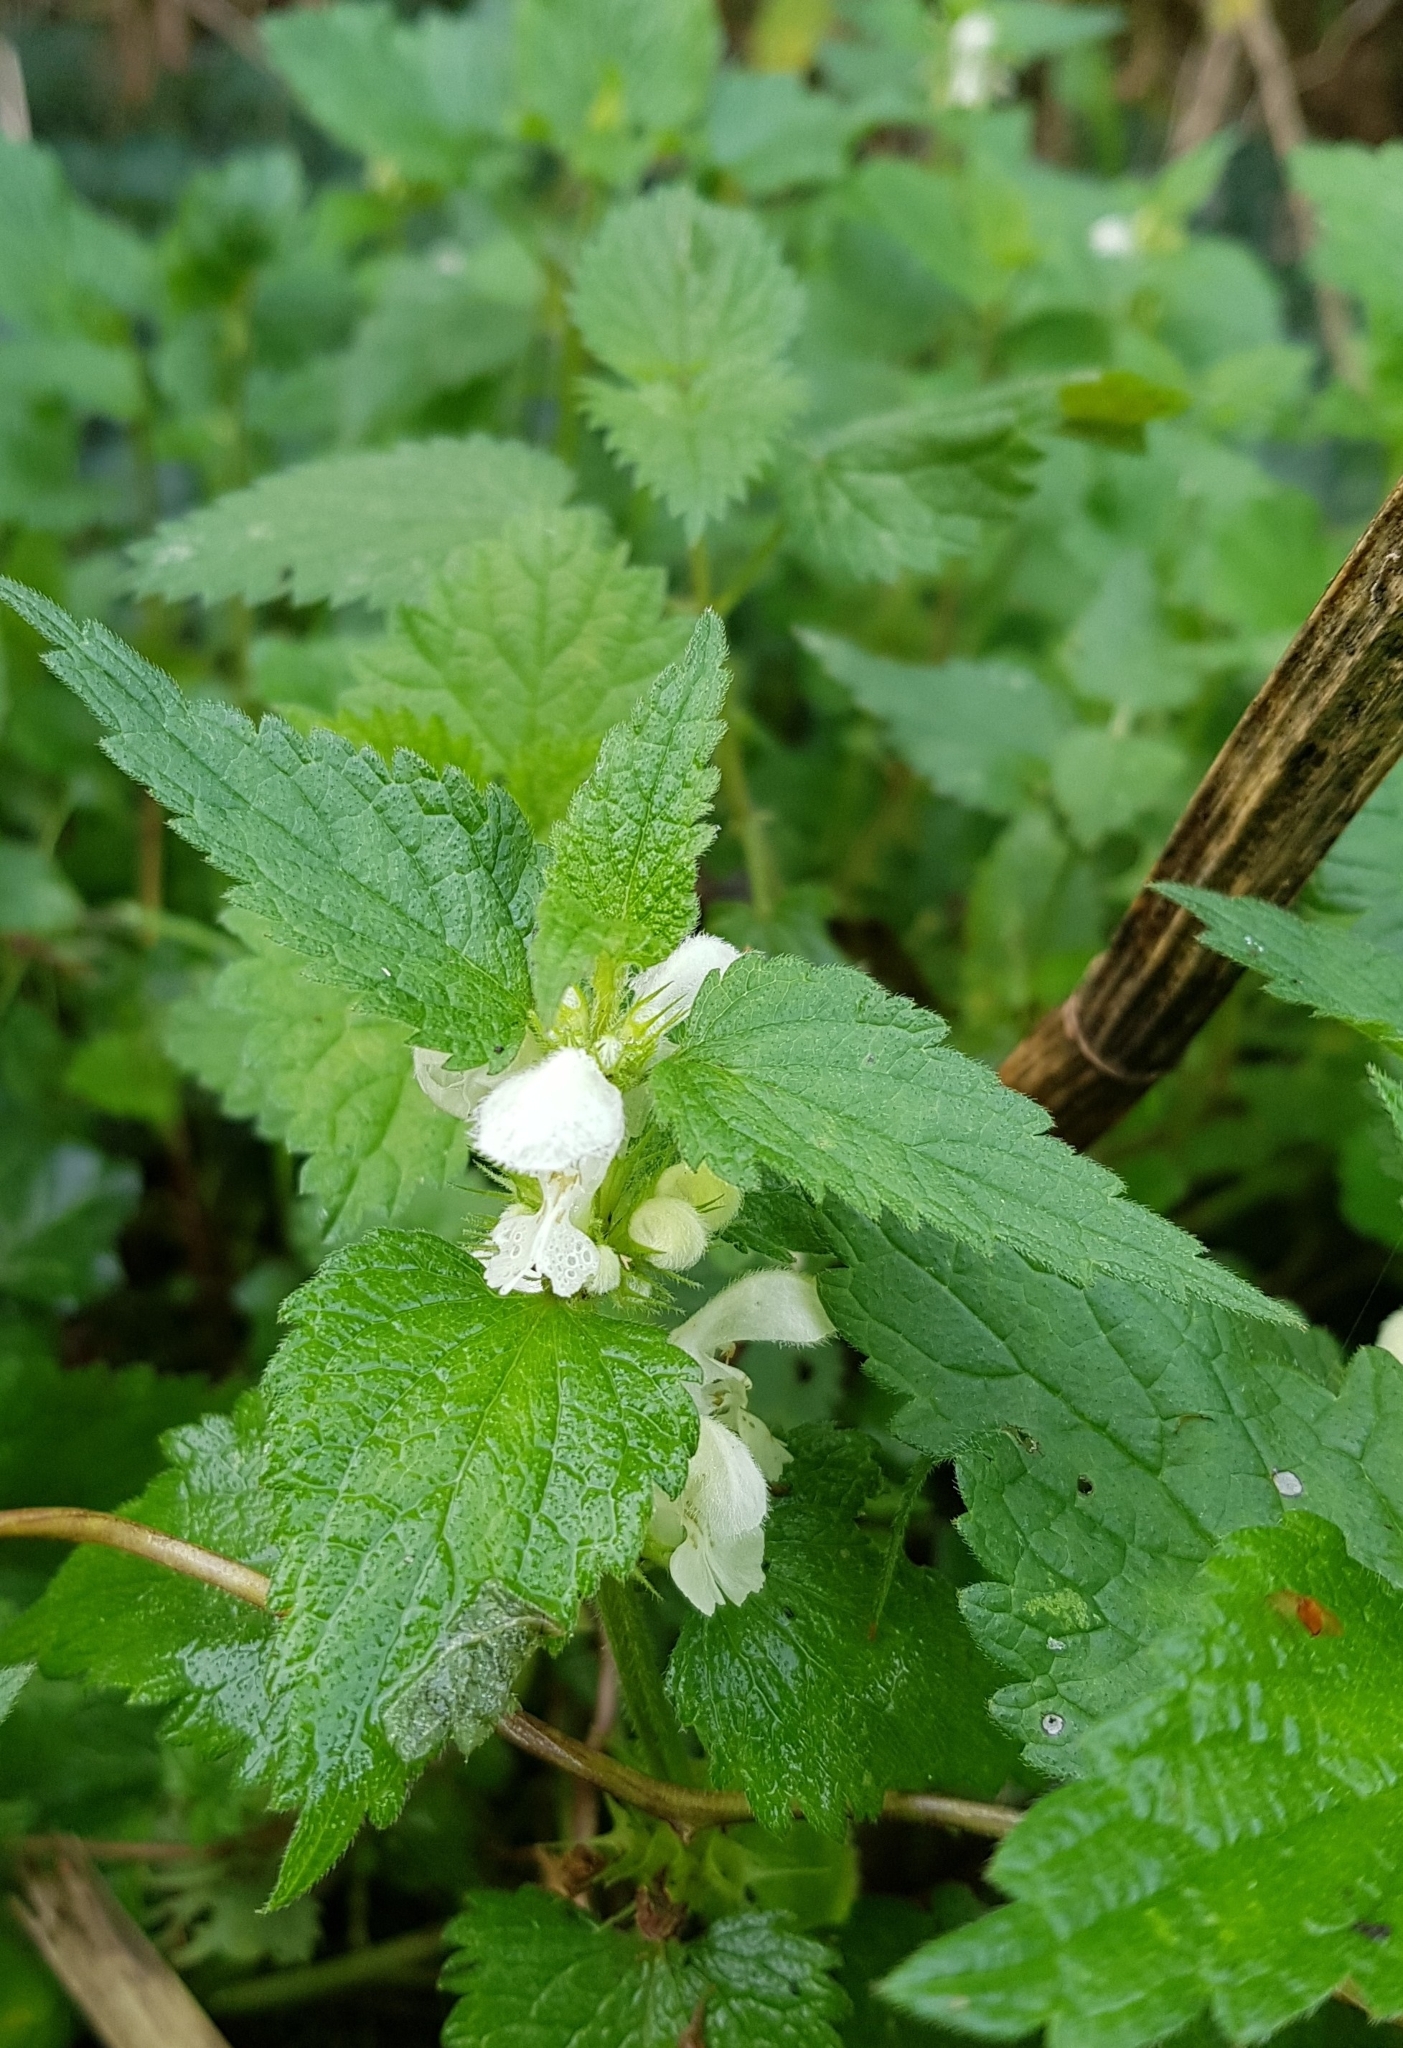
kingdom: Plantae
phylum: Tracheophyta
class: Magnoliopsida
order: Lamiales
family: Lamiaceae
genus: Lamium
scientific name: Lamium album
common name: White dead-nettle
